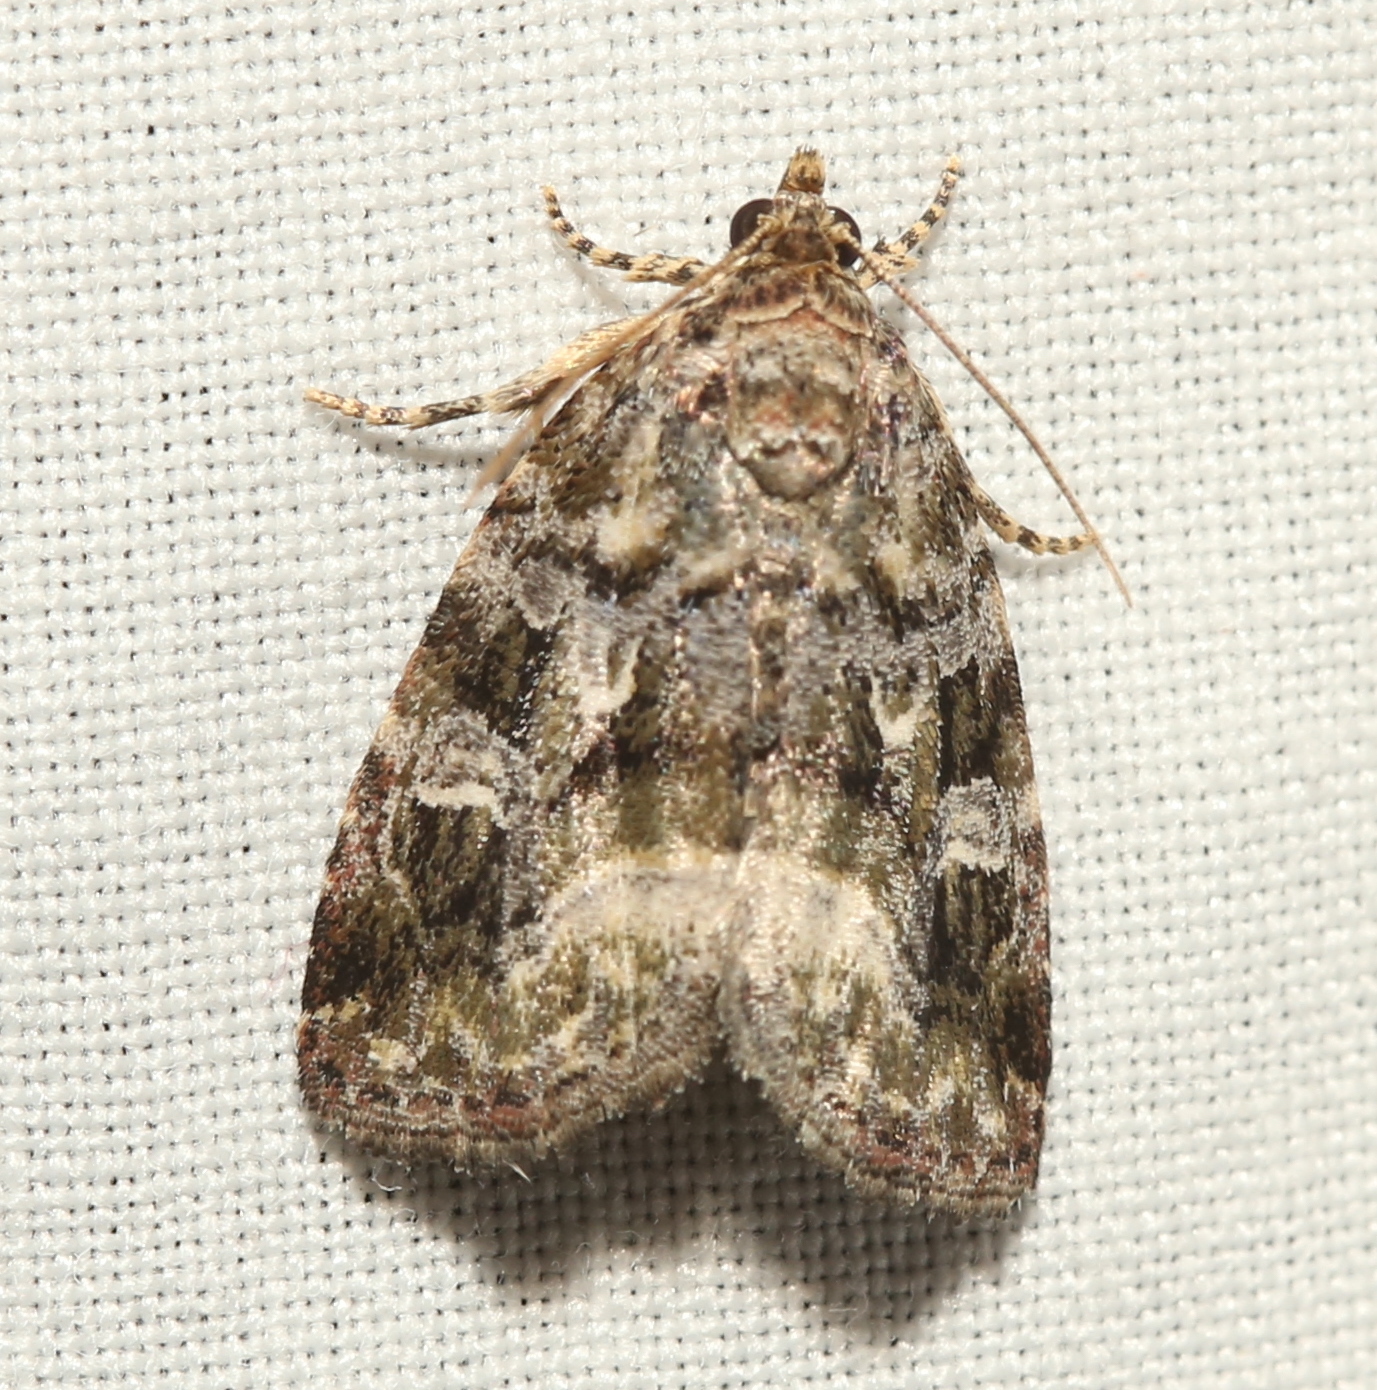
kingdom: Animalia
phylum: Arthropoda
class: Insecta
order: Lepidoptera
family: Noctuidae
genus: Protodeltote
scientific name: Protodeltote muscosula
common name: Large mossy glyph
